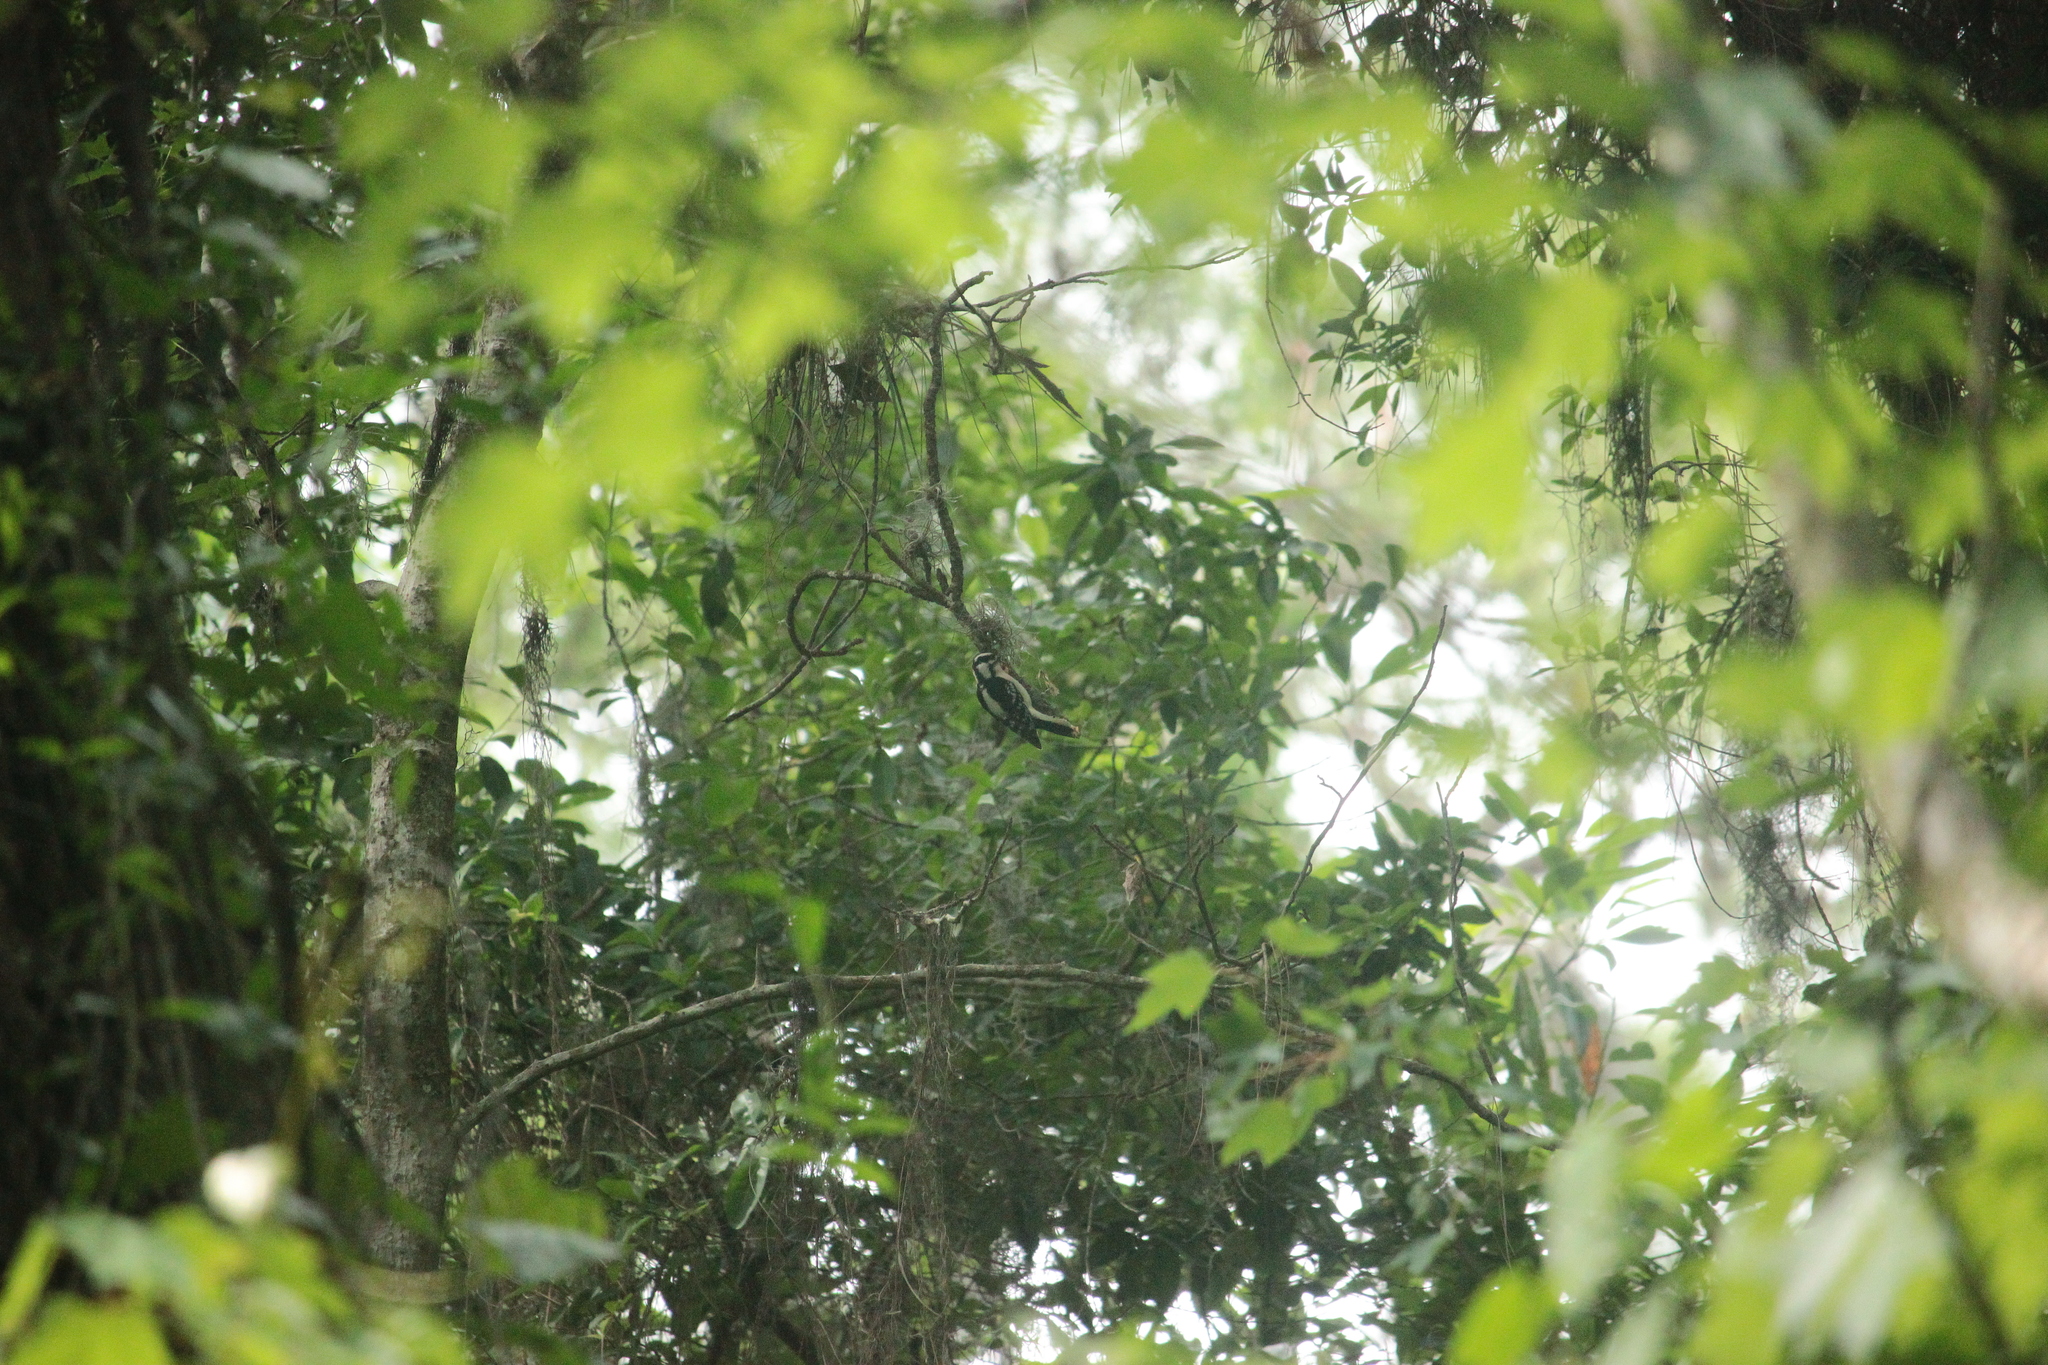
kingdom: Animalia
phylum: Chordata
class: Aves
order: Piciformes
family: Picidae
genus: Dryobates
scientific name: Dryobates pubescens
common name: Downy woodpecker
